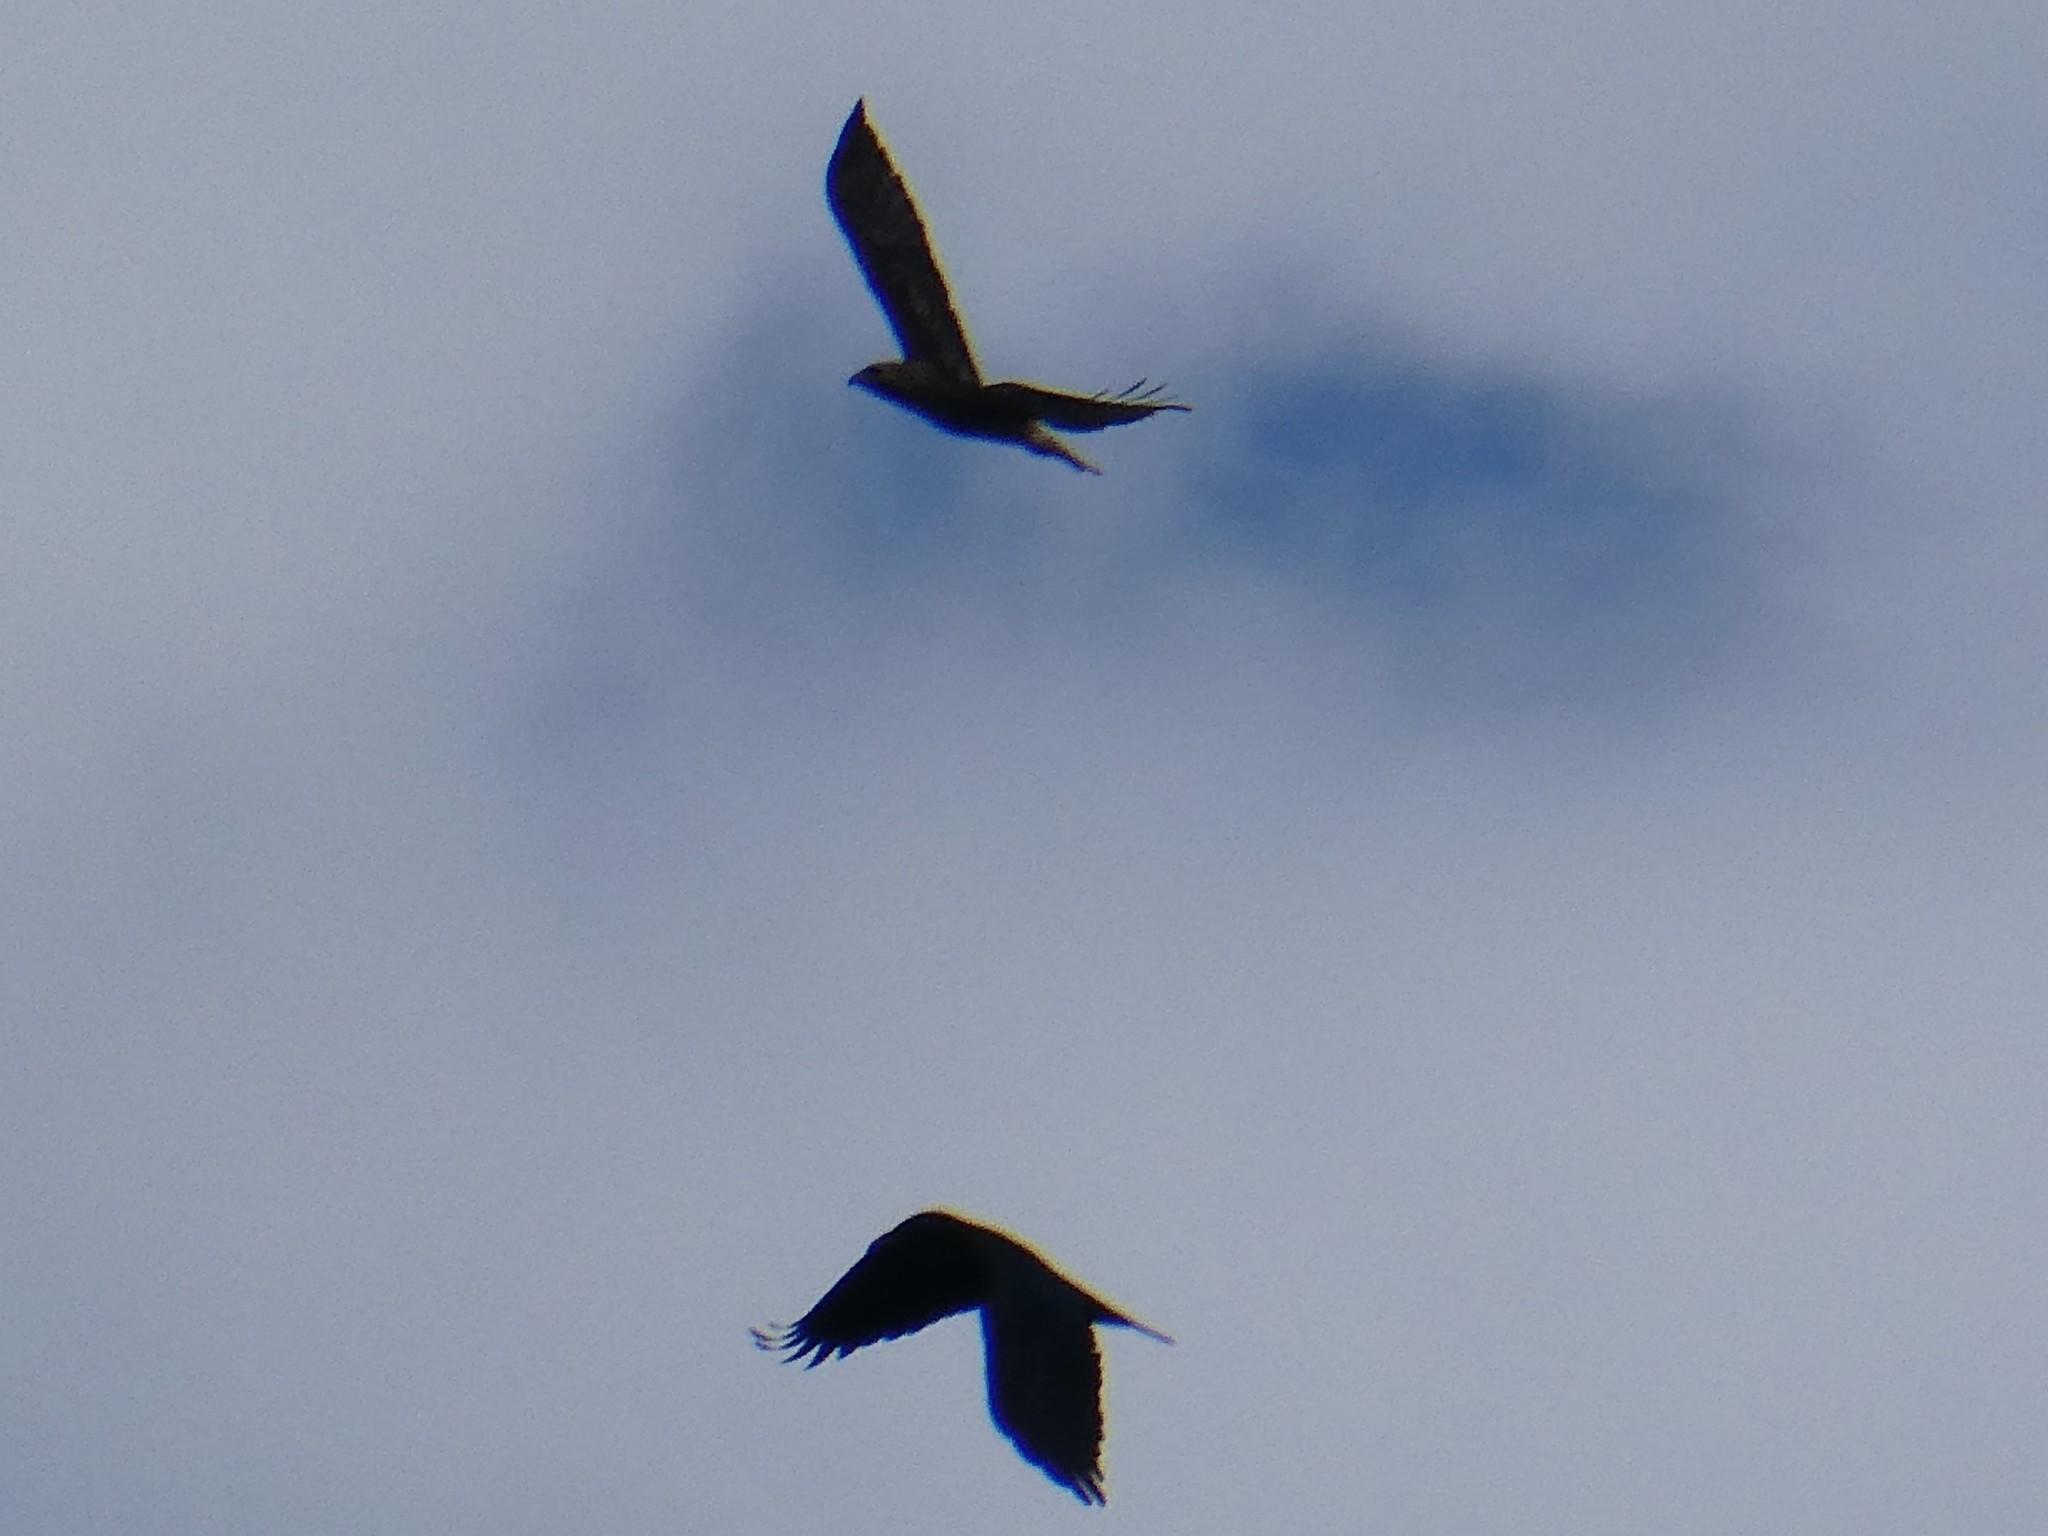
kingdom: Animalia
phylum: Chordata
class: Aves
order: Passeriformes
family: Corvidae
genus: Corvus
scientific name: Corvus corax
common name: Common raven
